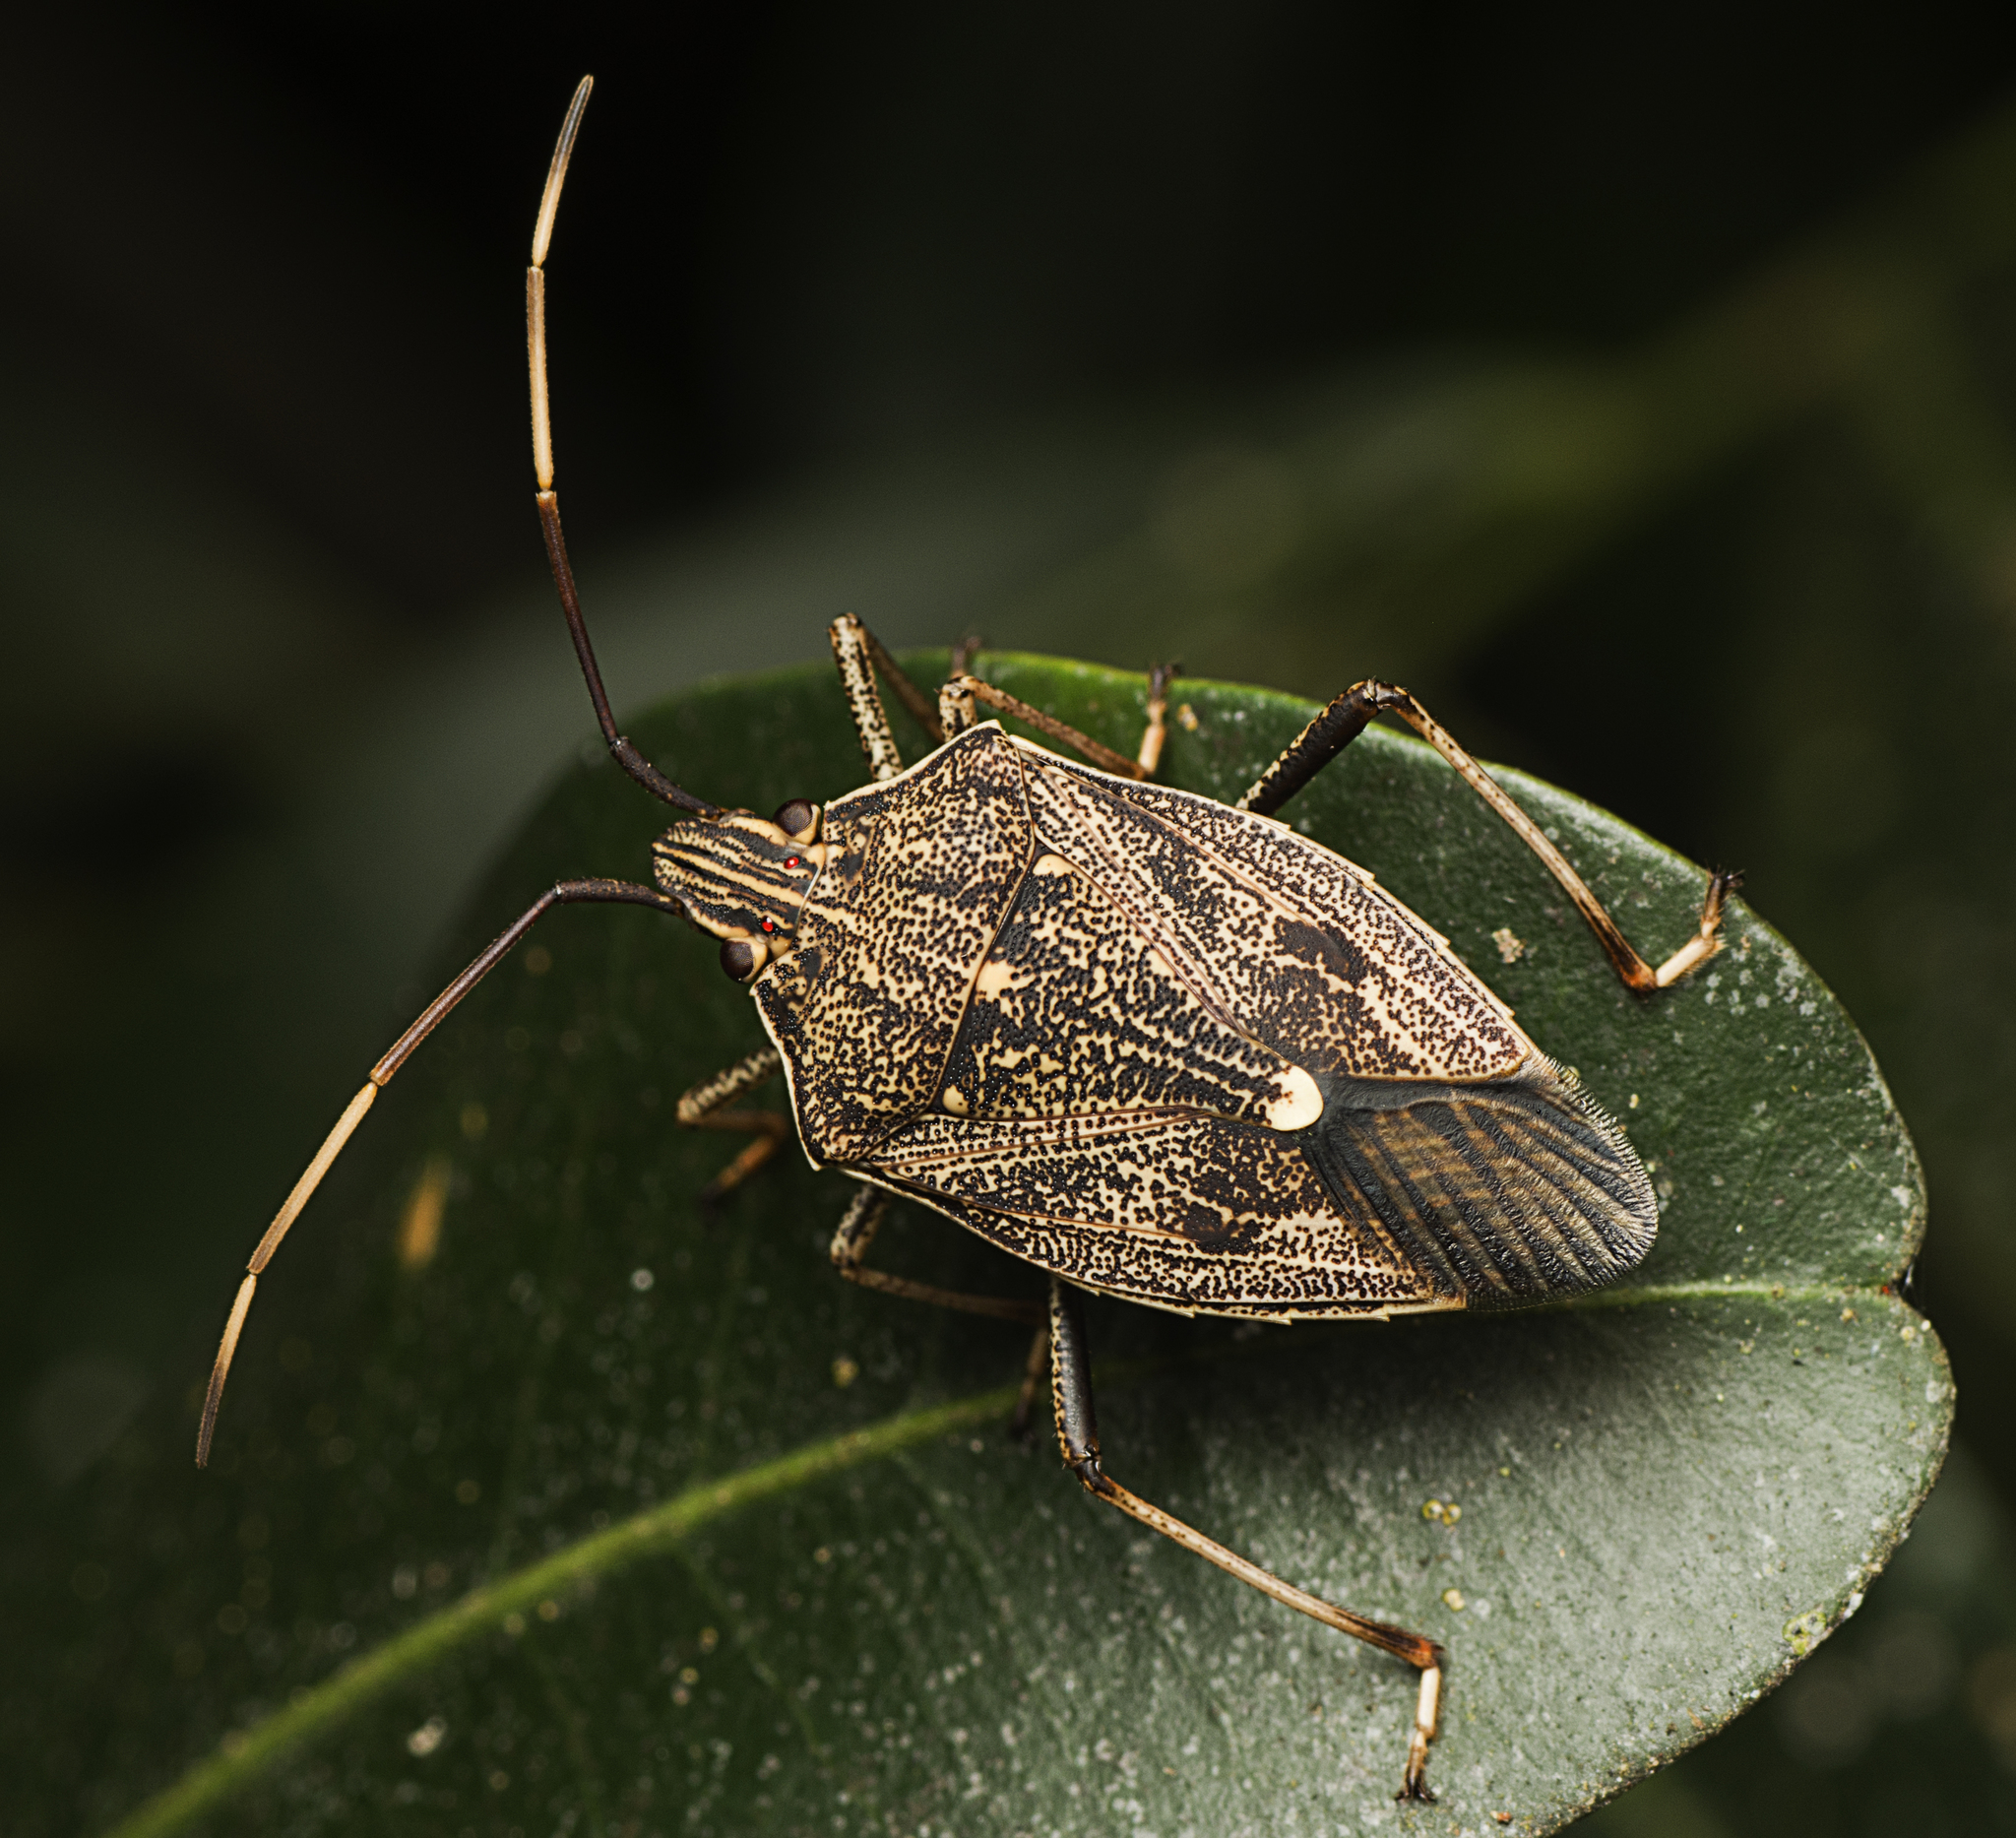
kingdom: Animalia
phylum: Arthropoda
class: Insecta
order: Hemiptera
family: Pentatomidae
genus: Poecilometis
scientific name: Poecilometis
